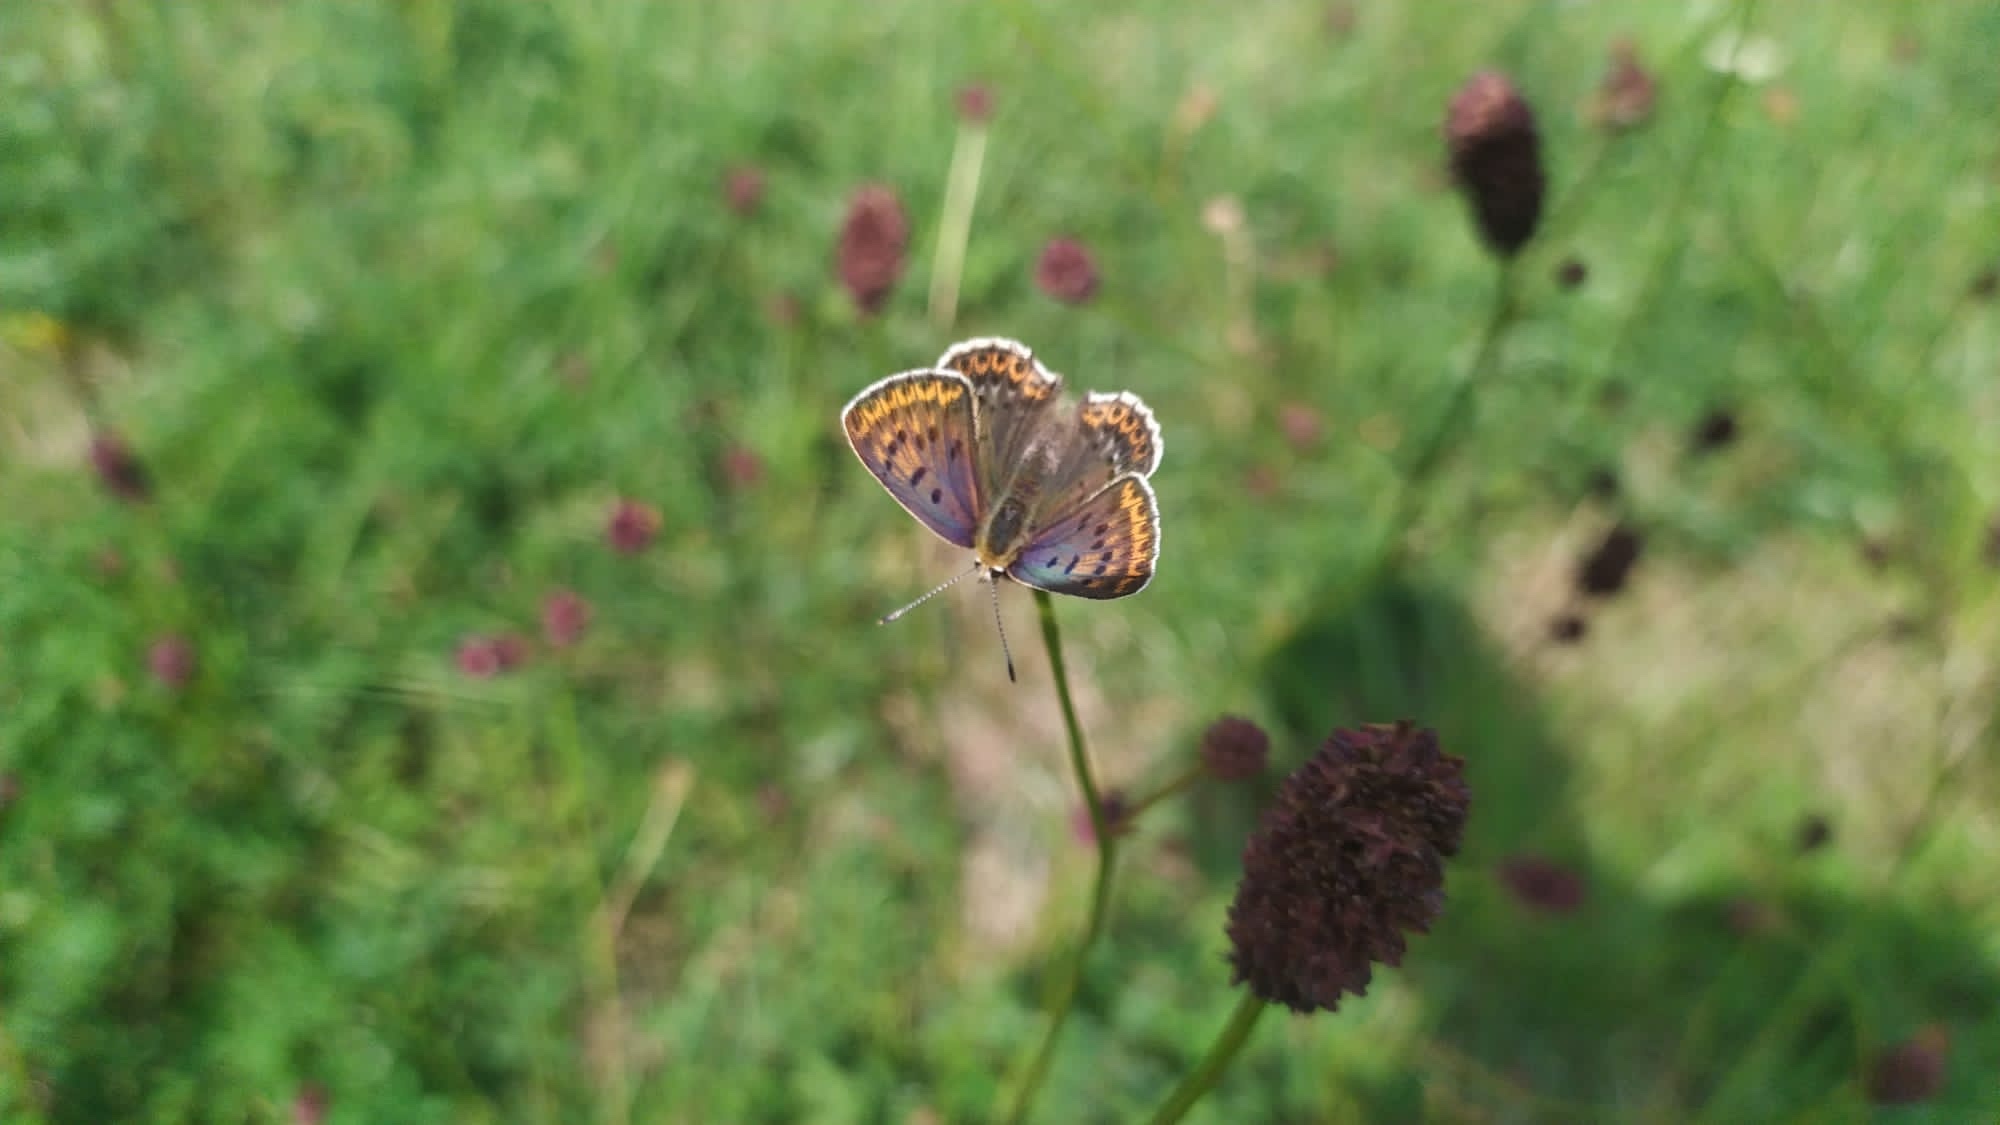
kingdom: Animalia
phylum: Arthropoda
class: Insecta
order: Lepidoptera
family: Lycaenidae
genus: Loweia
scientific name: Loweia tityrus
